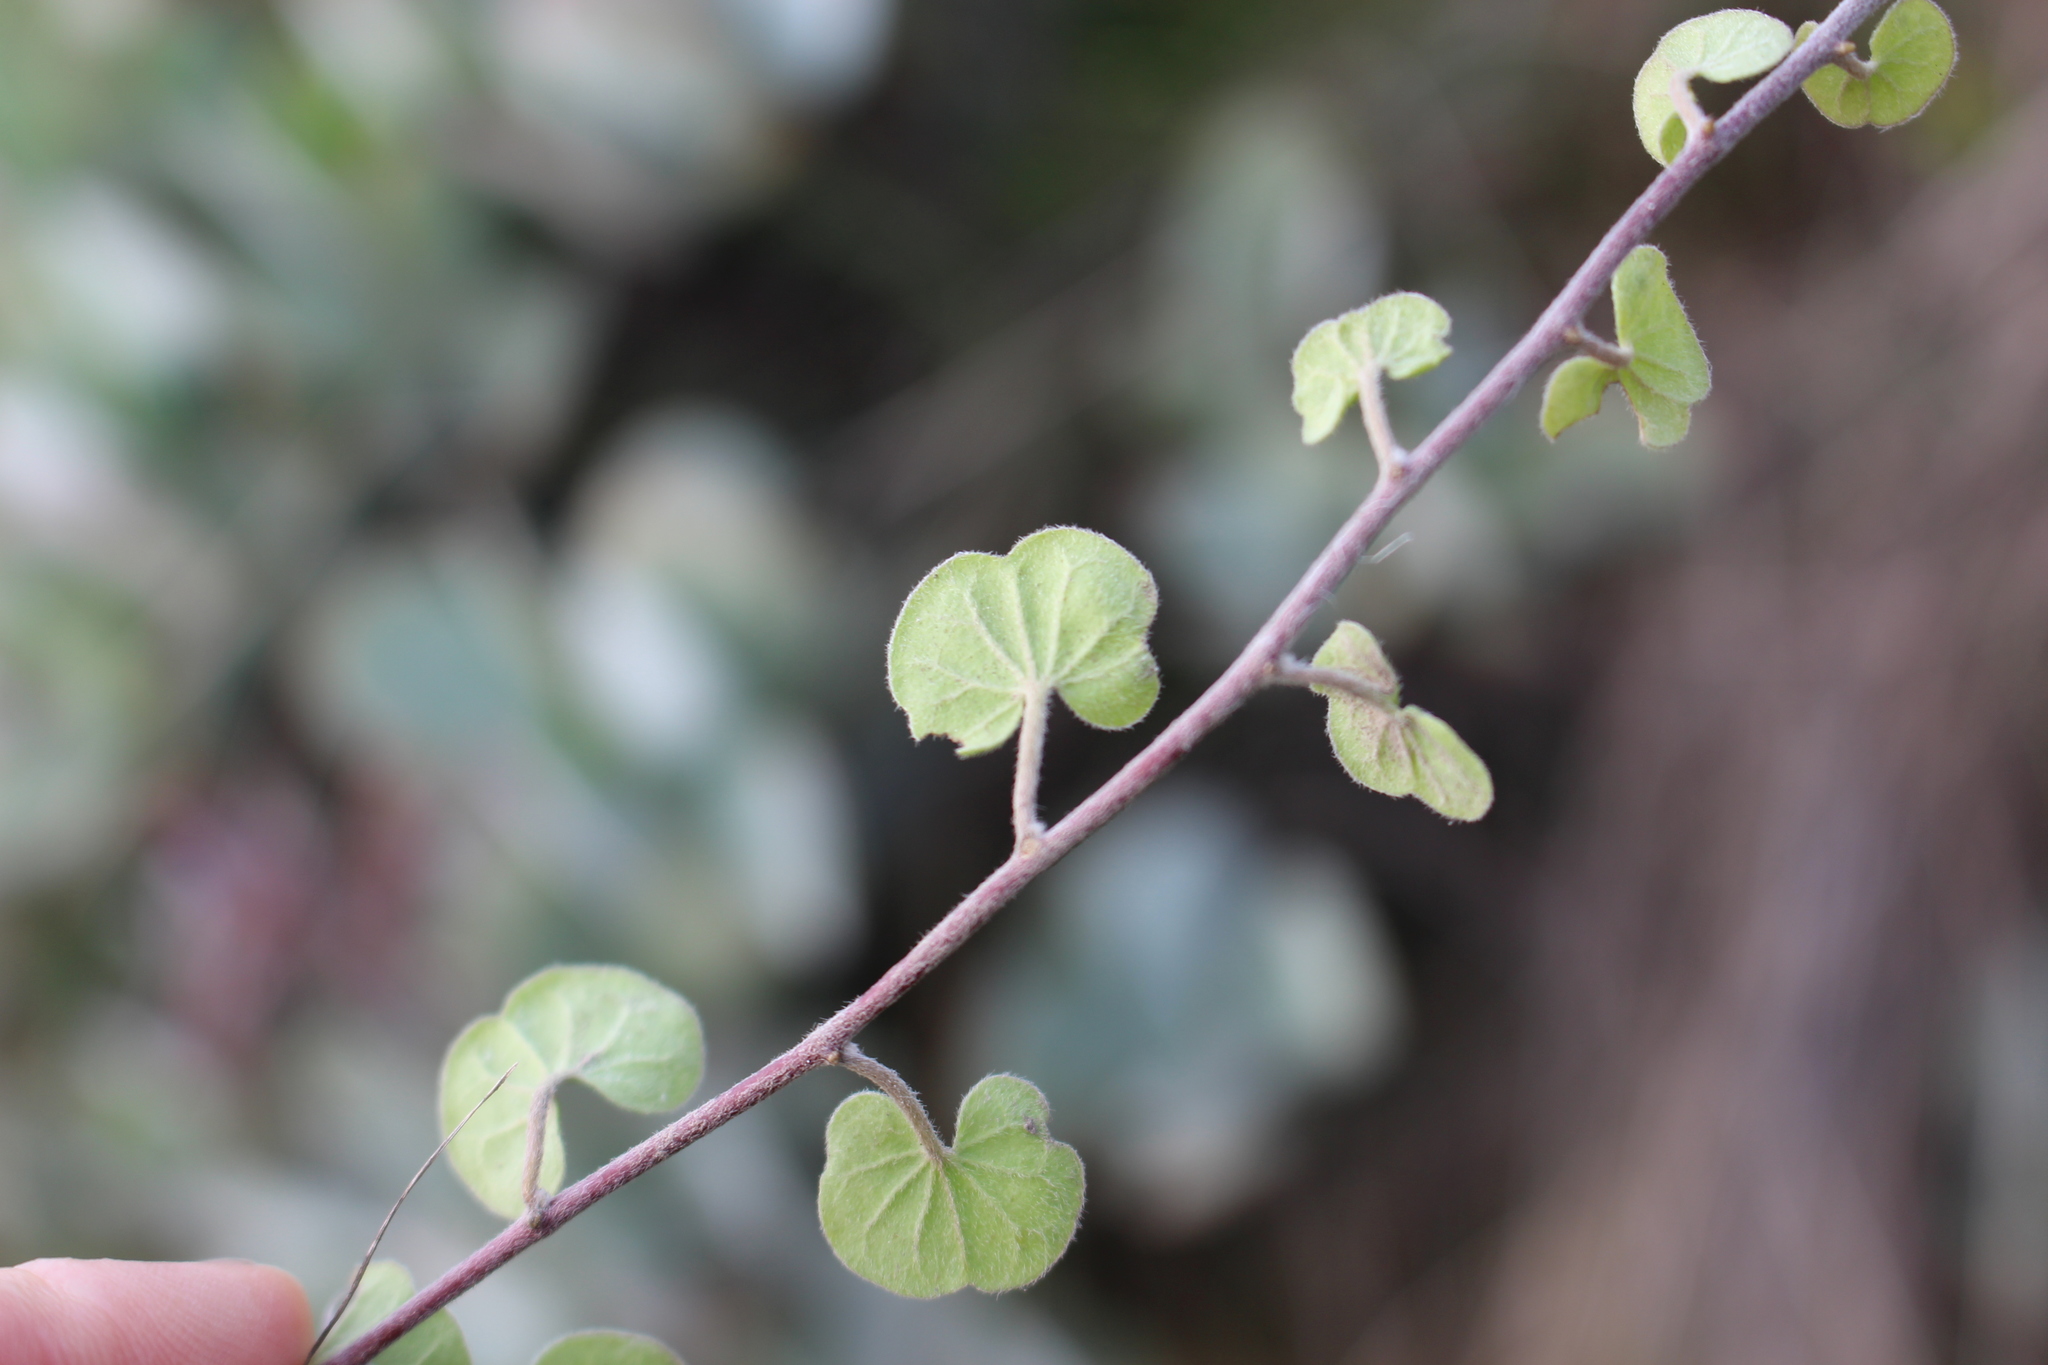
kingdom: Plantae
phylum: Tracheophyta
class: Magnoliopsida
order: Solanales
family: Convolvulaceae
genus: Dichondra
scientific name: Dichondra repens
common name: Kidneyweed
